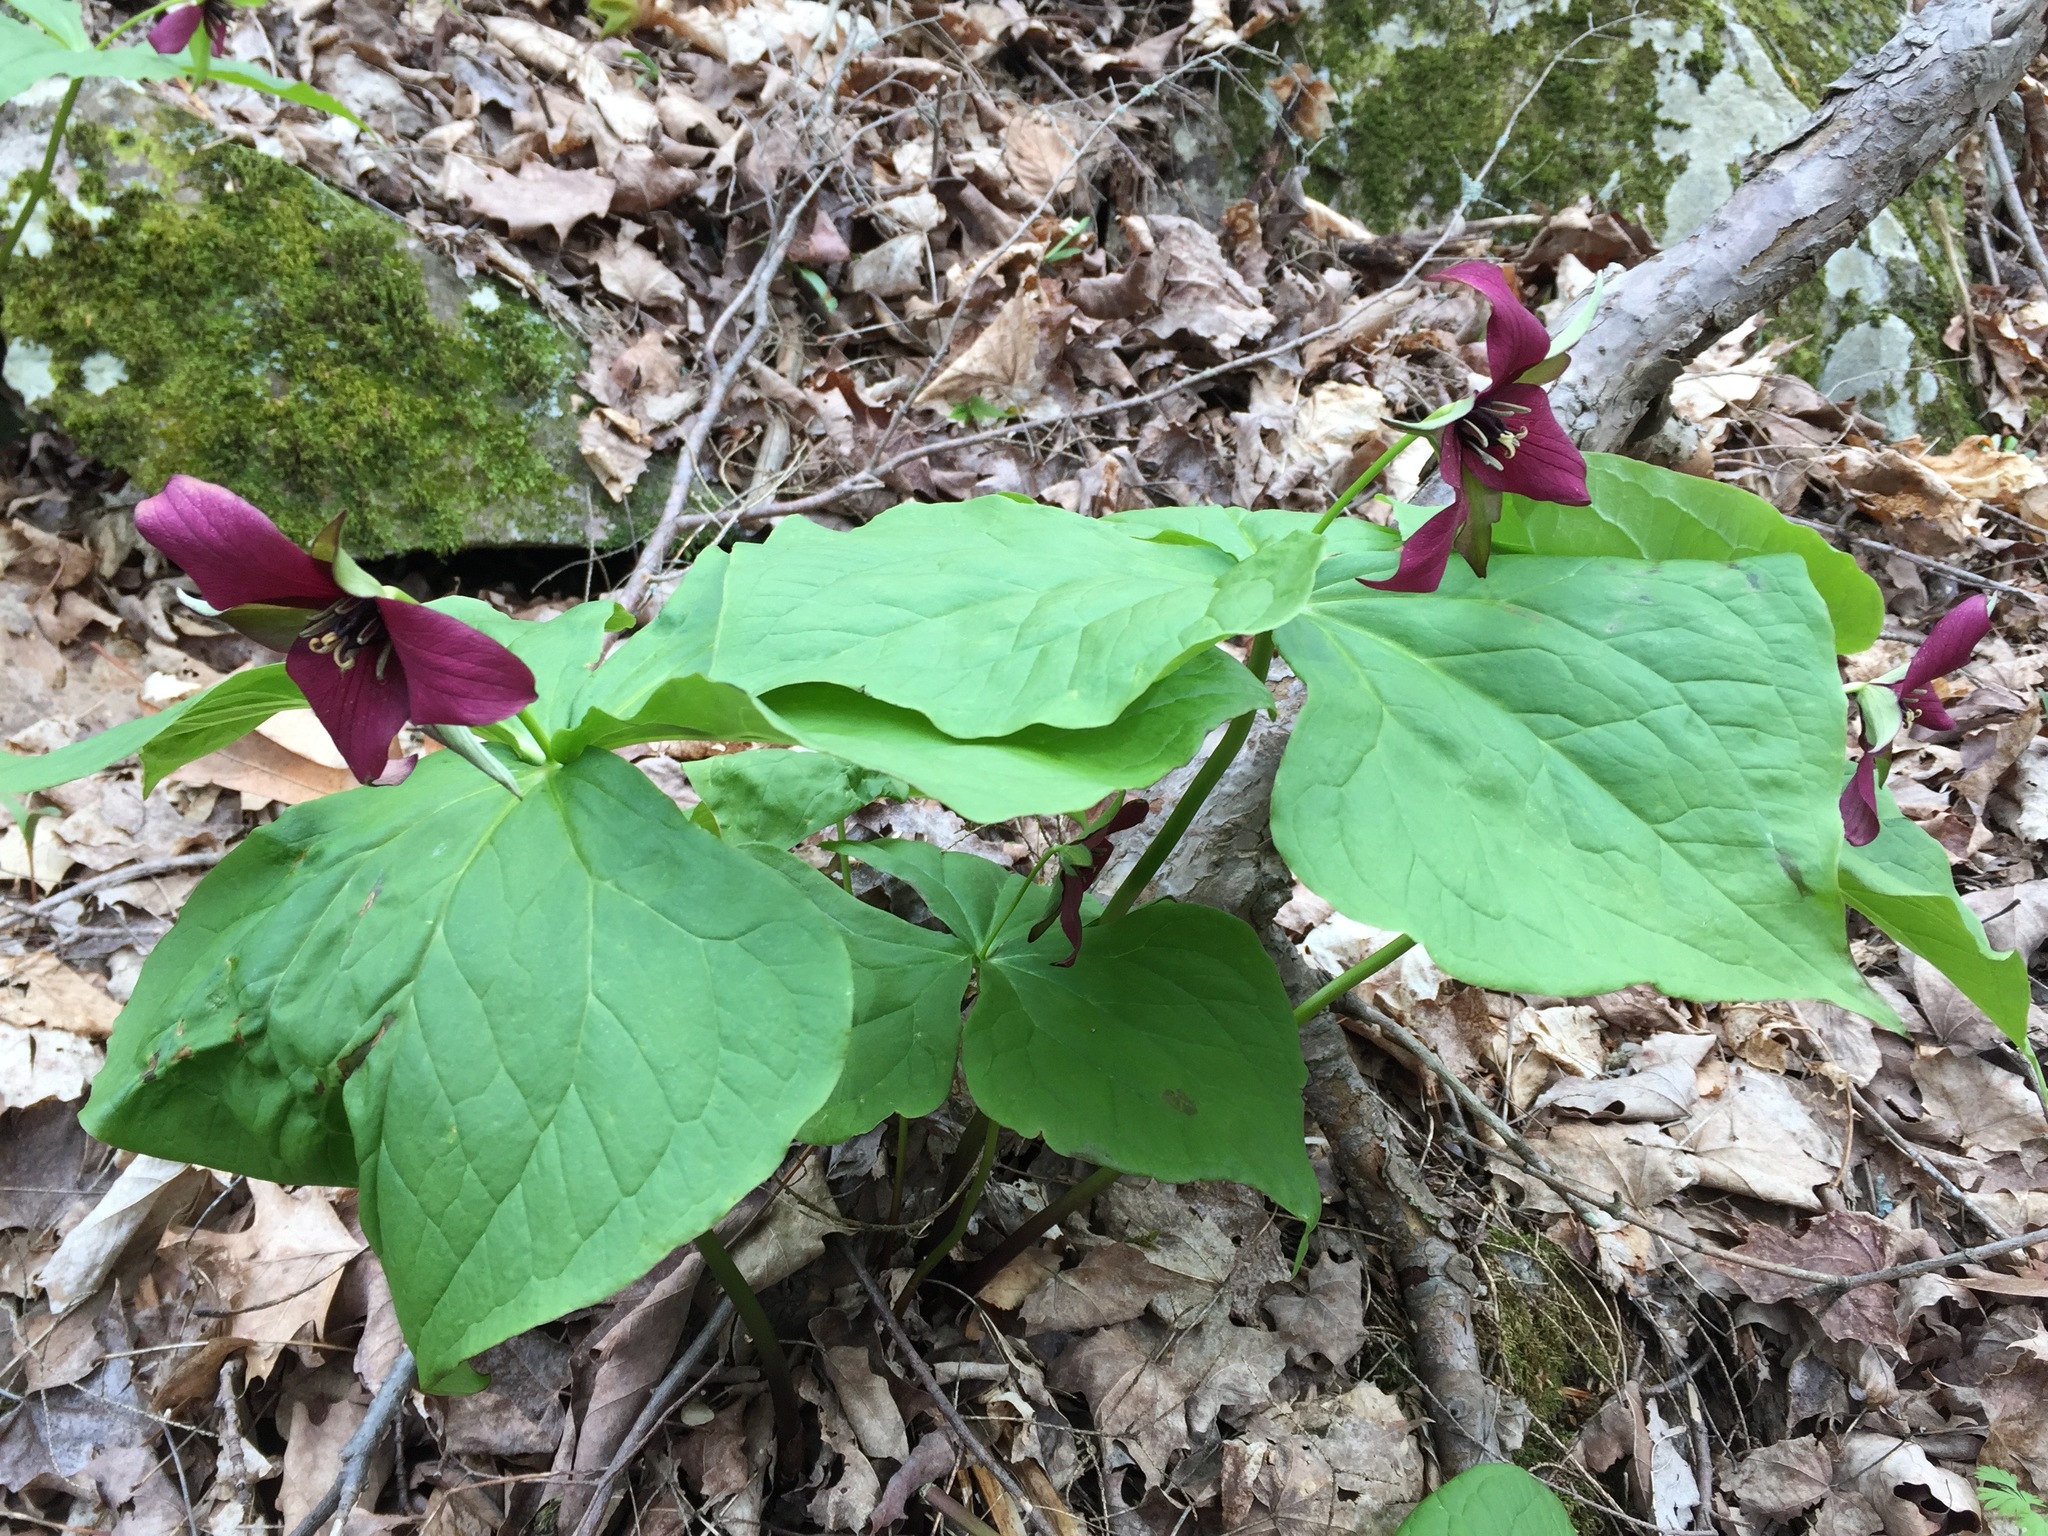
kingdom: Plantae
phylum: Tracheophyta
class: Liliopsida
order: Liliales
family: Melanthiaceae
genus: Trillium
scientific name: Trillium erectum
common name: Purple trillium
